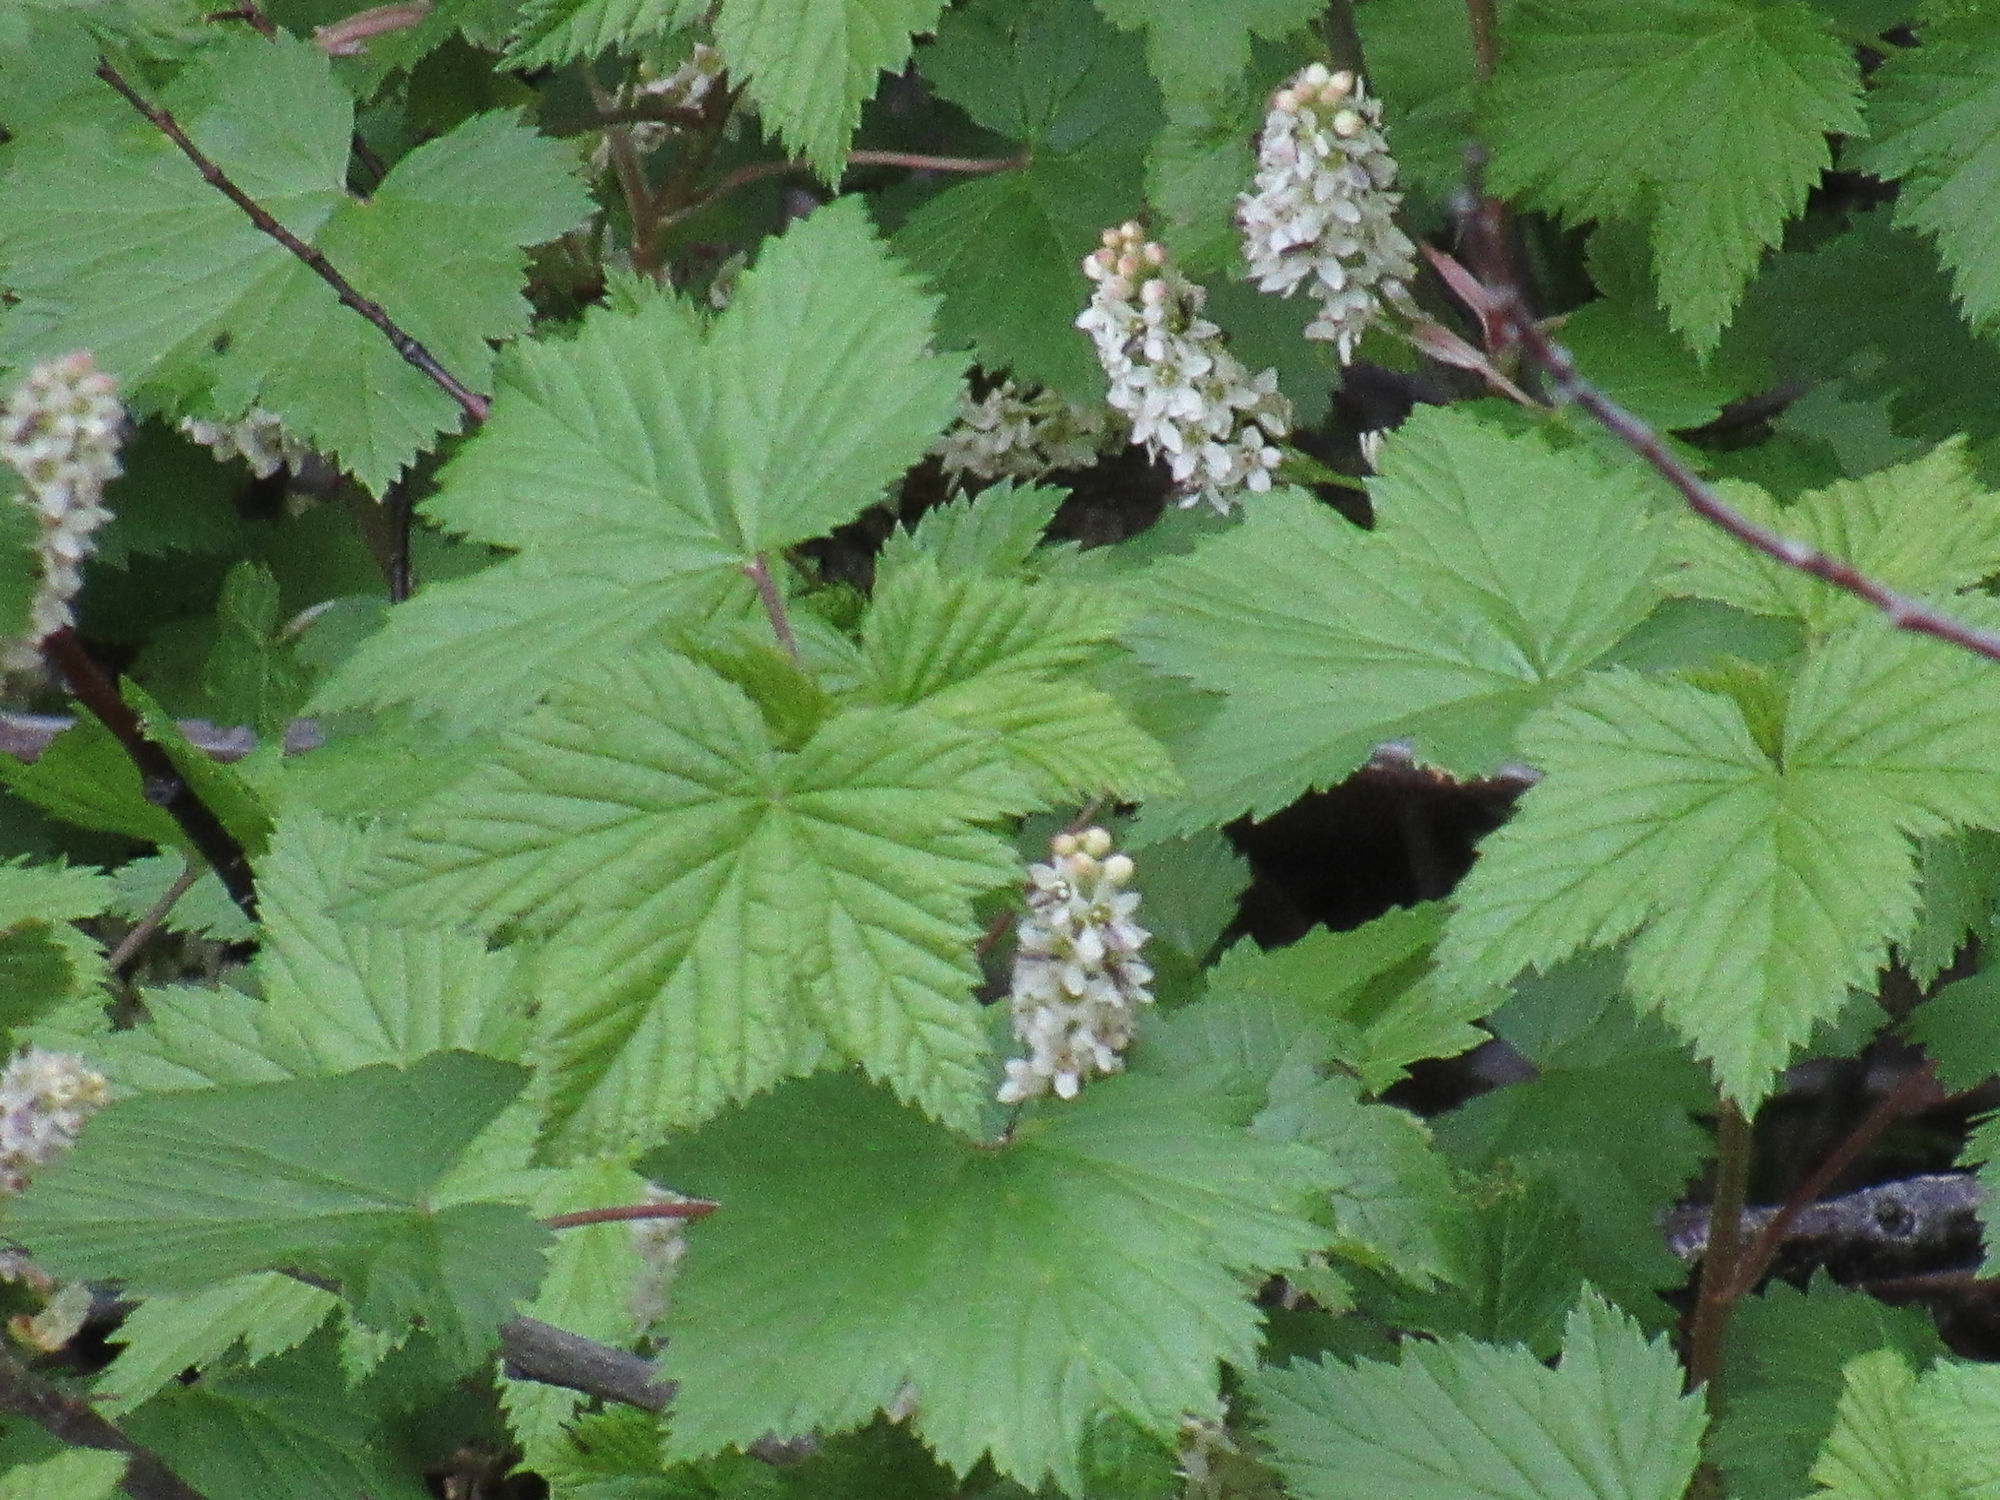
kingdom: Plantae
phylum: Tracheophyta
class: Magnoliopsida
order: Saxifragales
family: Grossulariaceae
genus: Ribes
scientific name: Ribes hudsonianum
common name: Northern black currant
